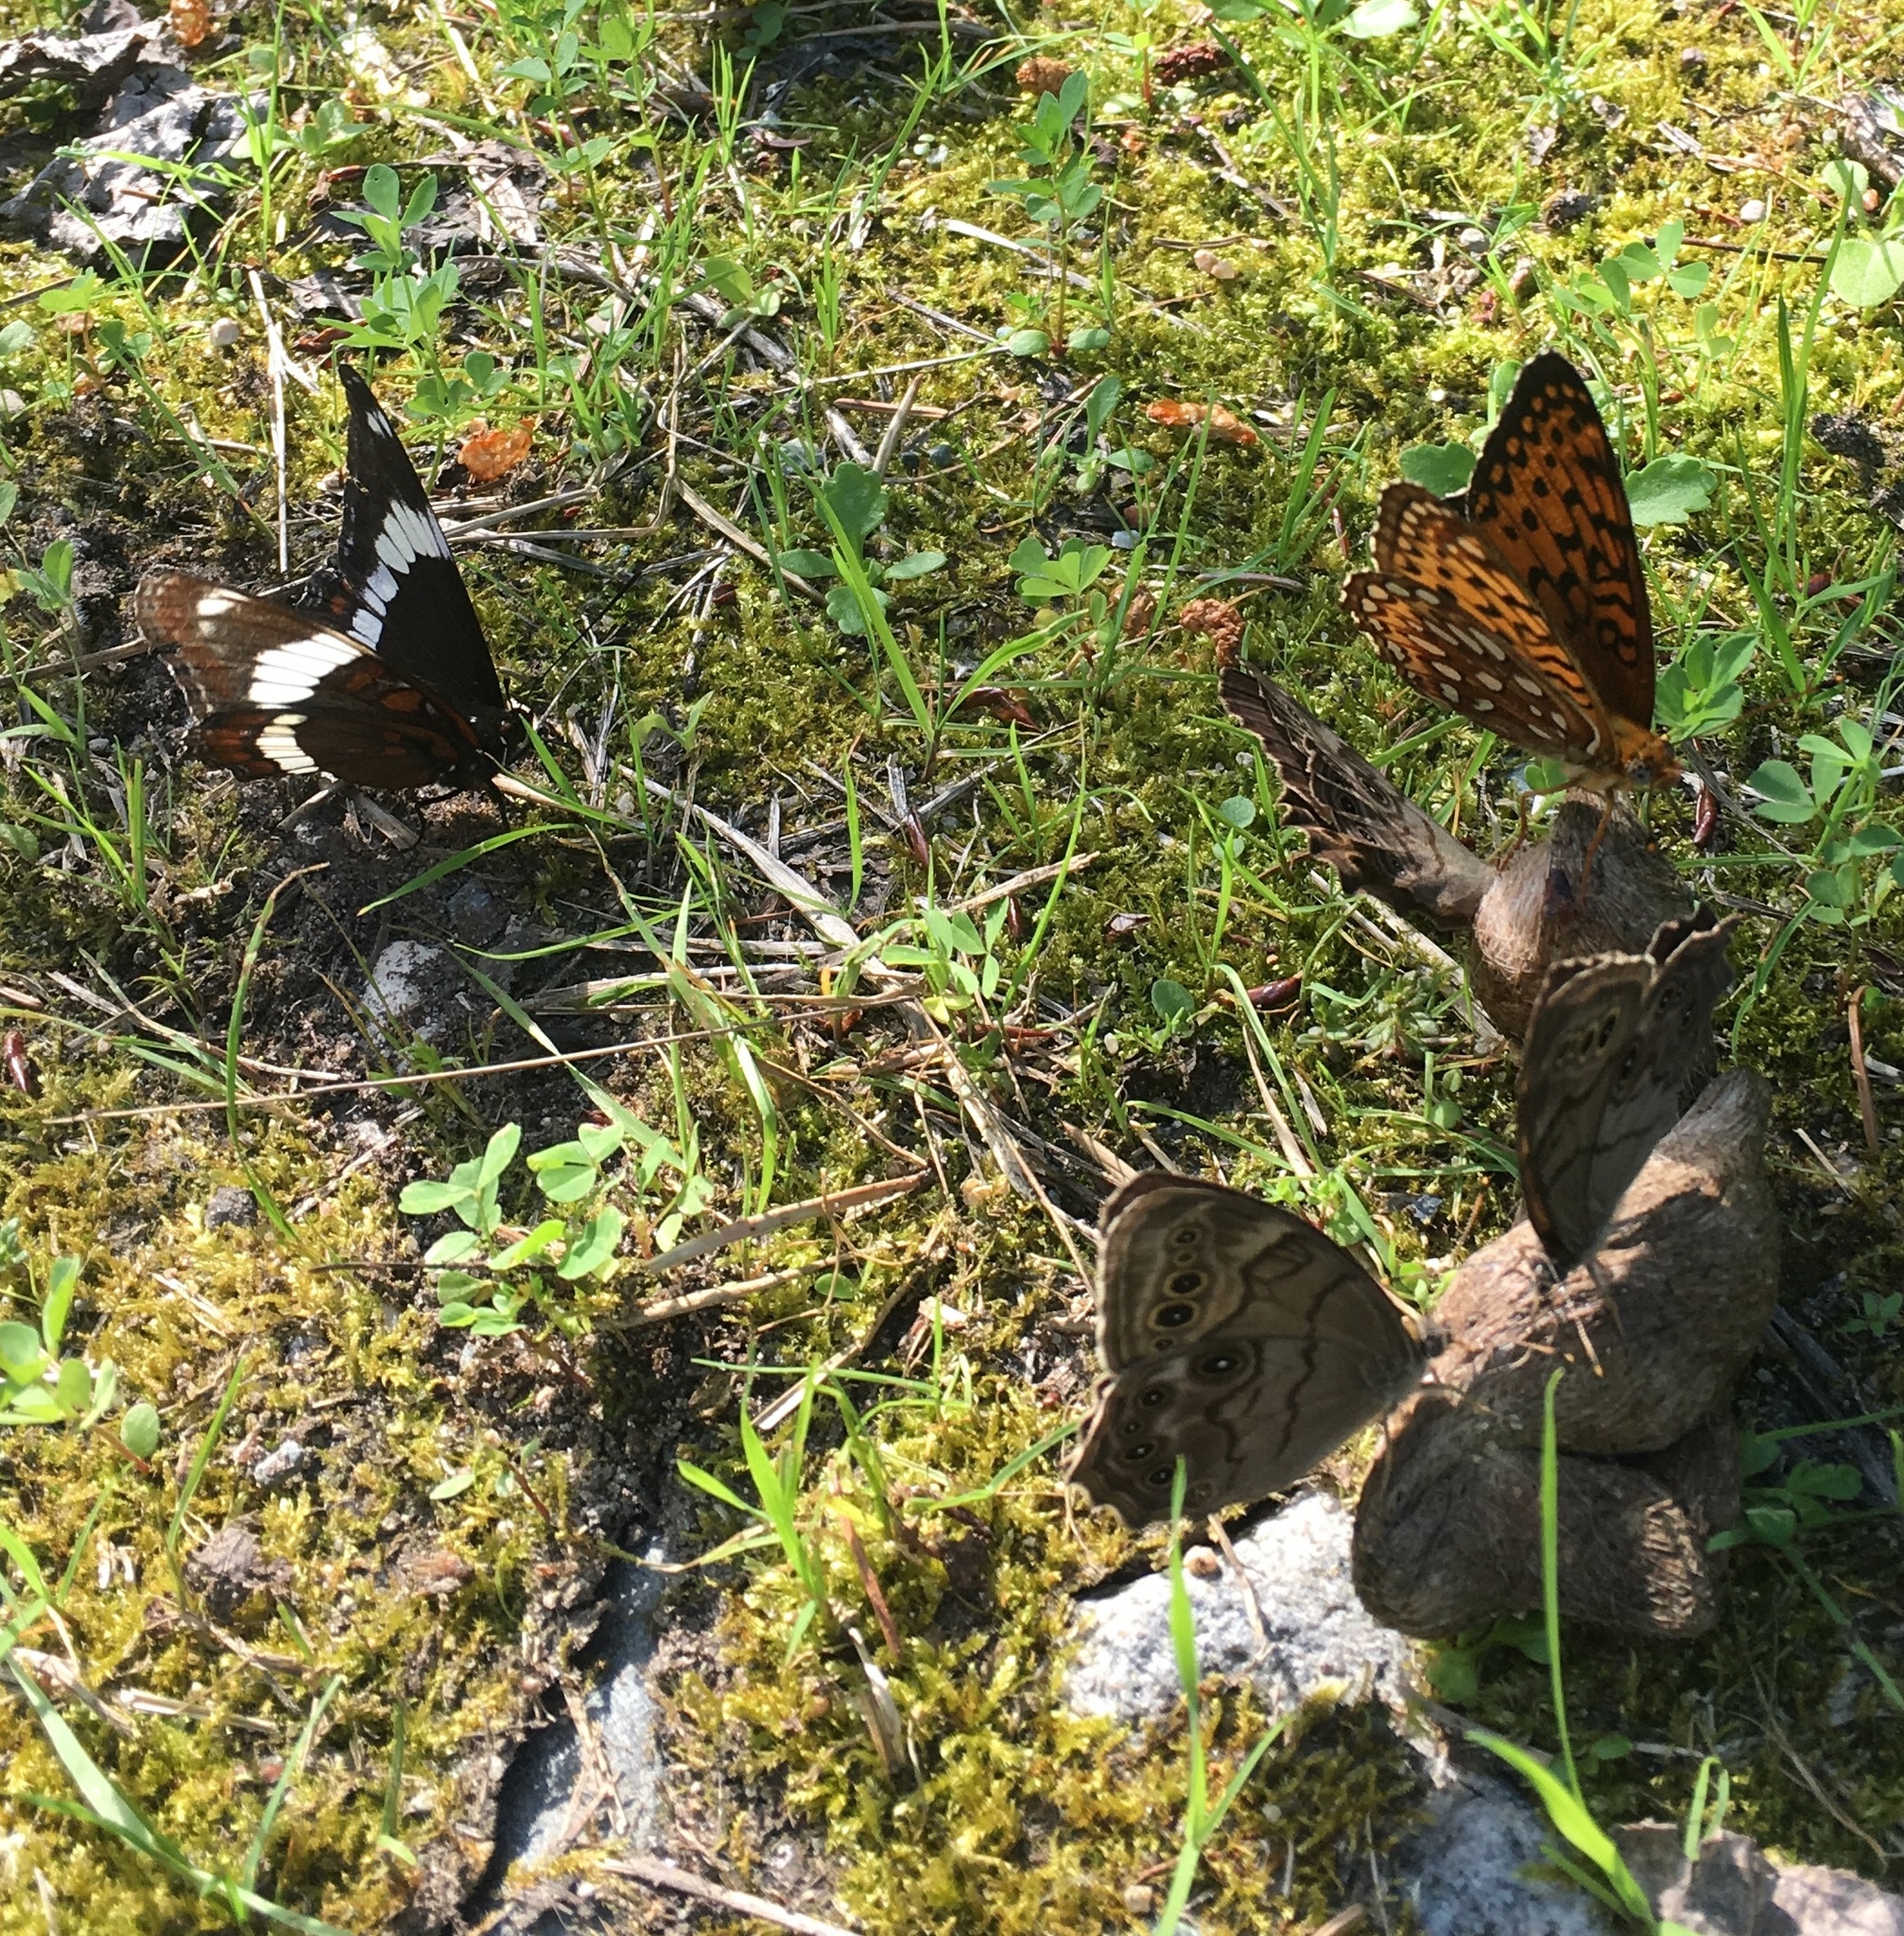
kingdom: Animalia
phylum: Arthropoda
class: Insecta
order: Lepidoptera
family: Nymphalidae
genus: Limenitis
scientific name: Limenitis arthemis
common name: Red-spotted admiral
